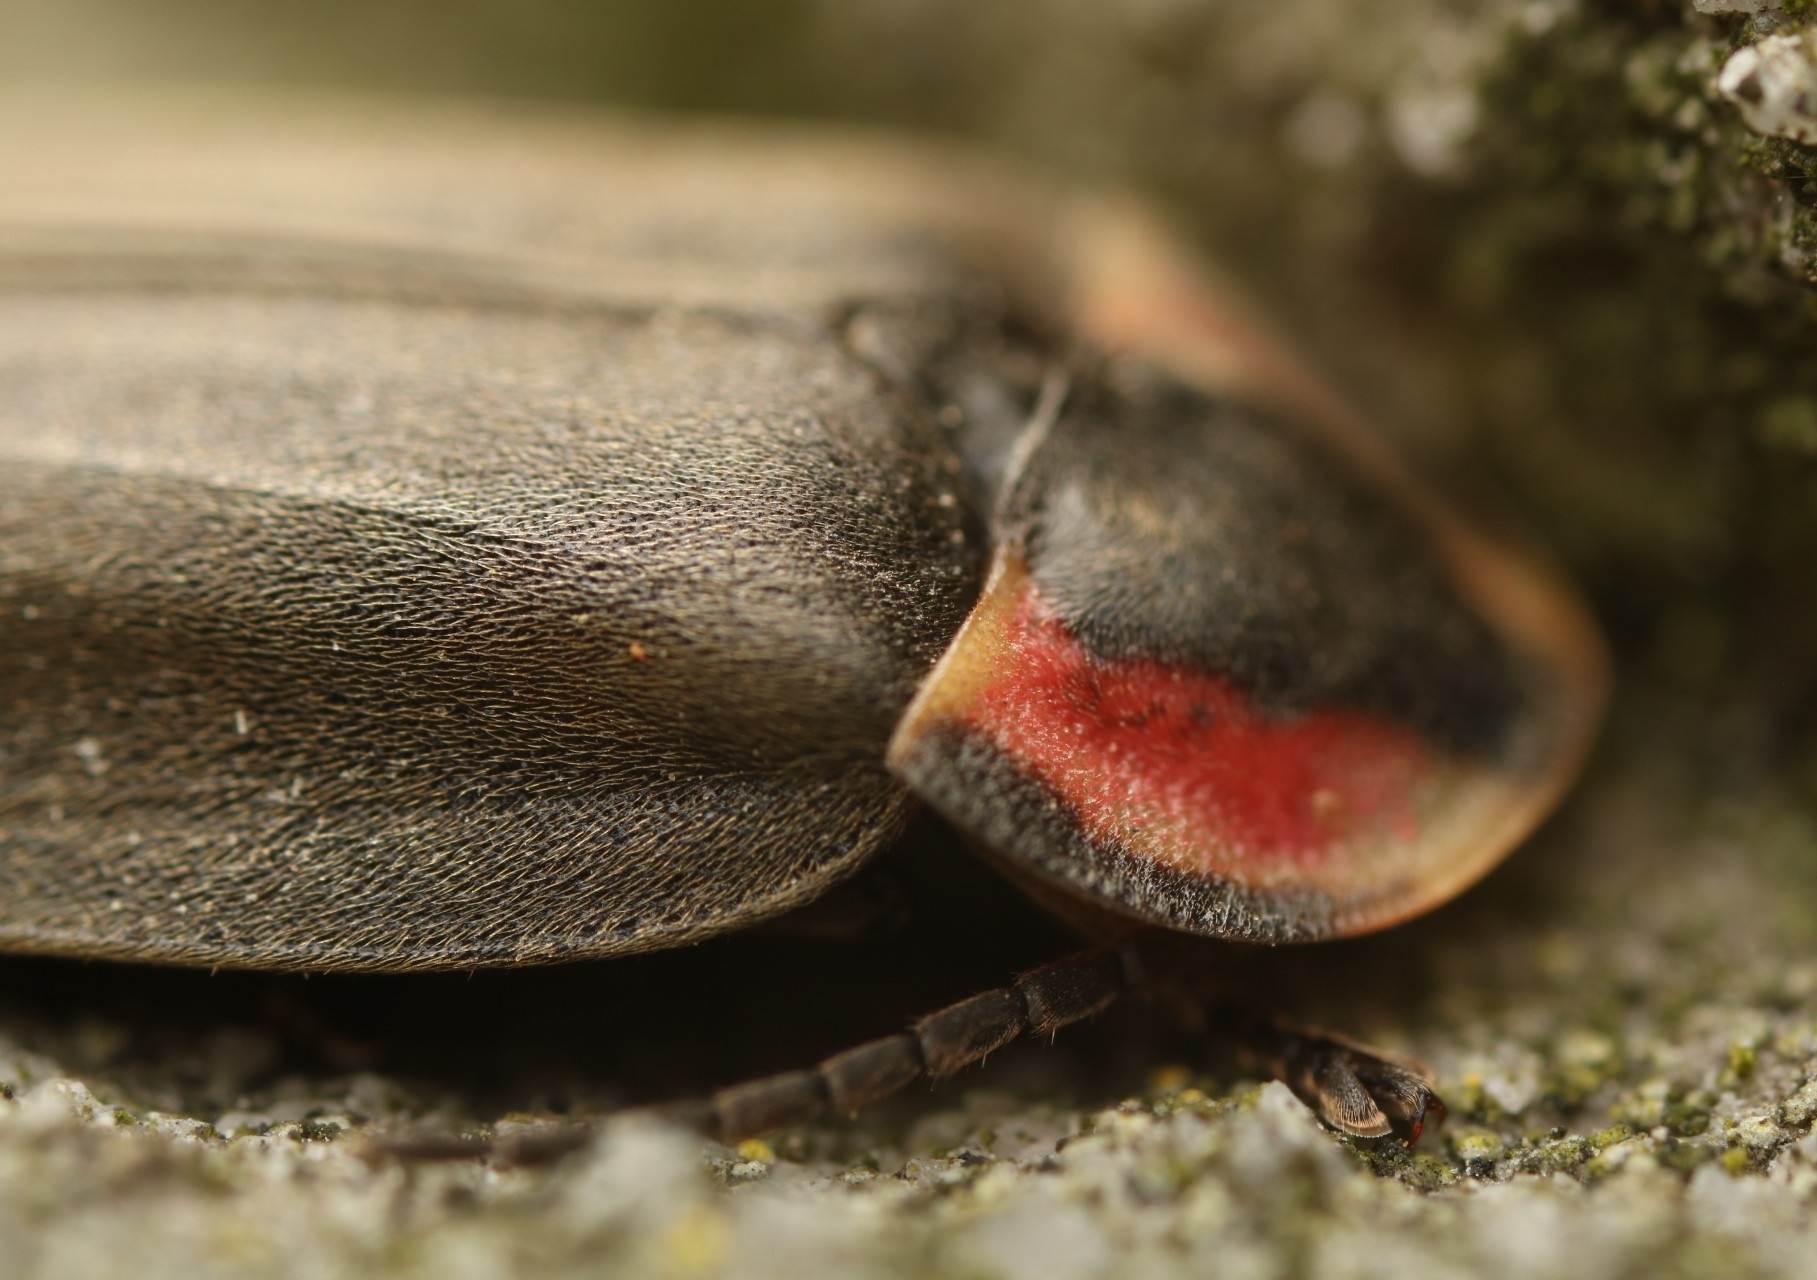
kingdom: Animalia
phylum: Arthropoda
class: Insecta
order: Coleoptera
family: Lampyridae
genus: Photinus
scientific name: Photinus corrusca
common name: Winter firefly
